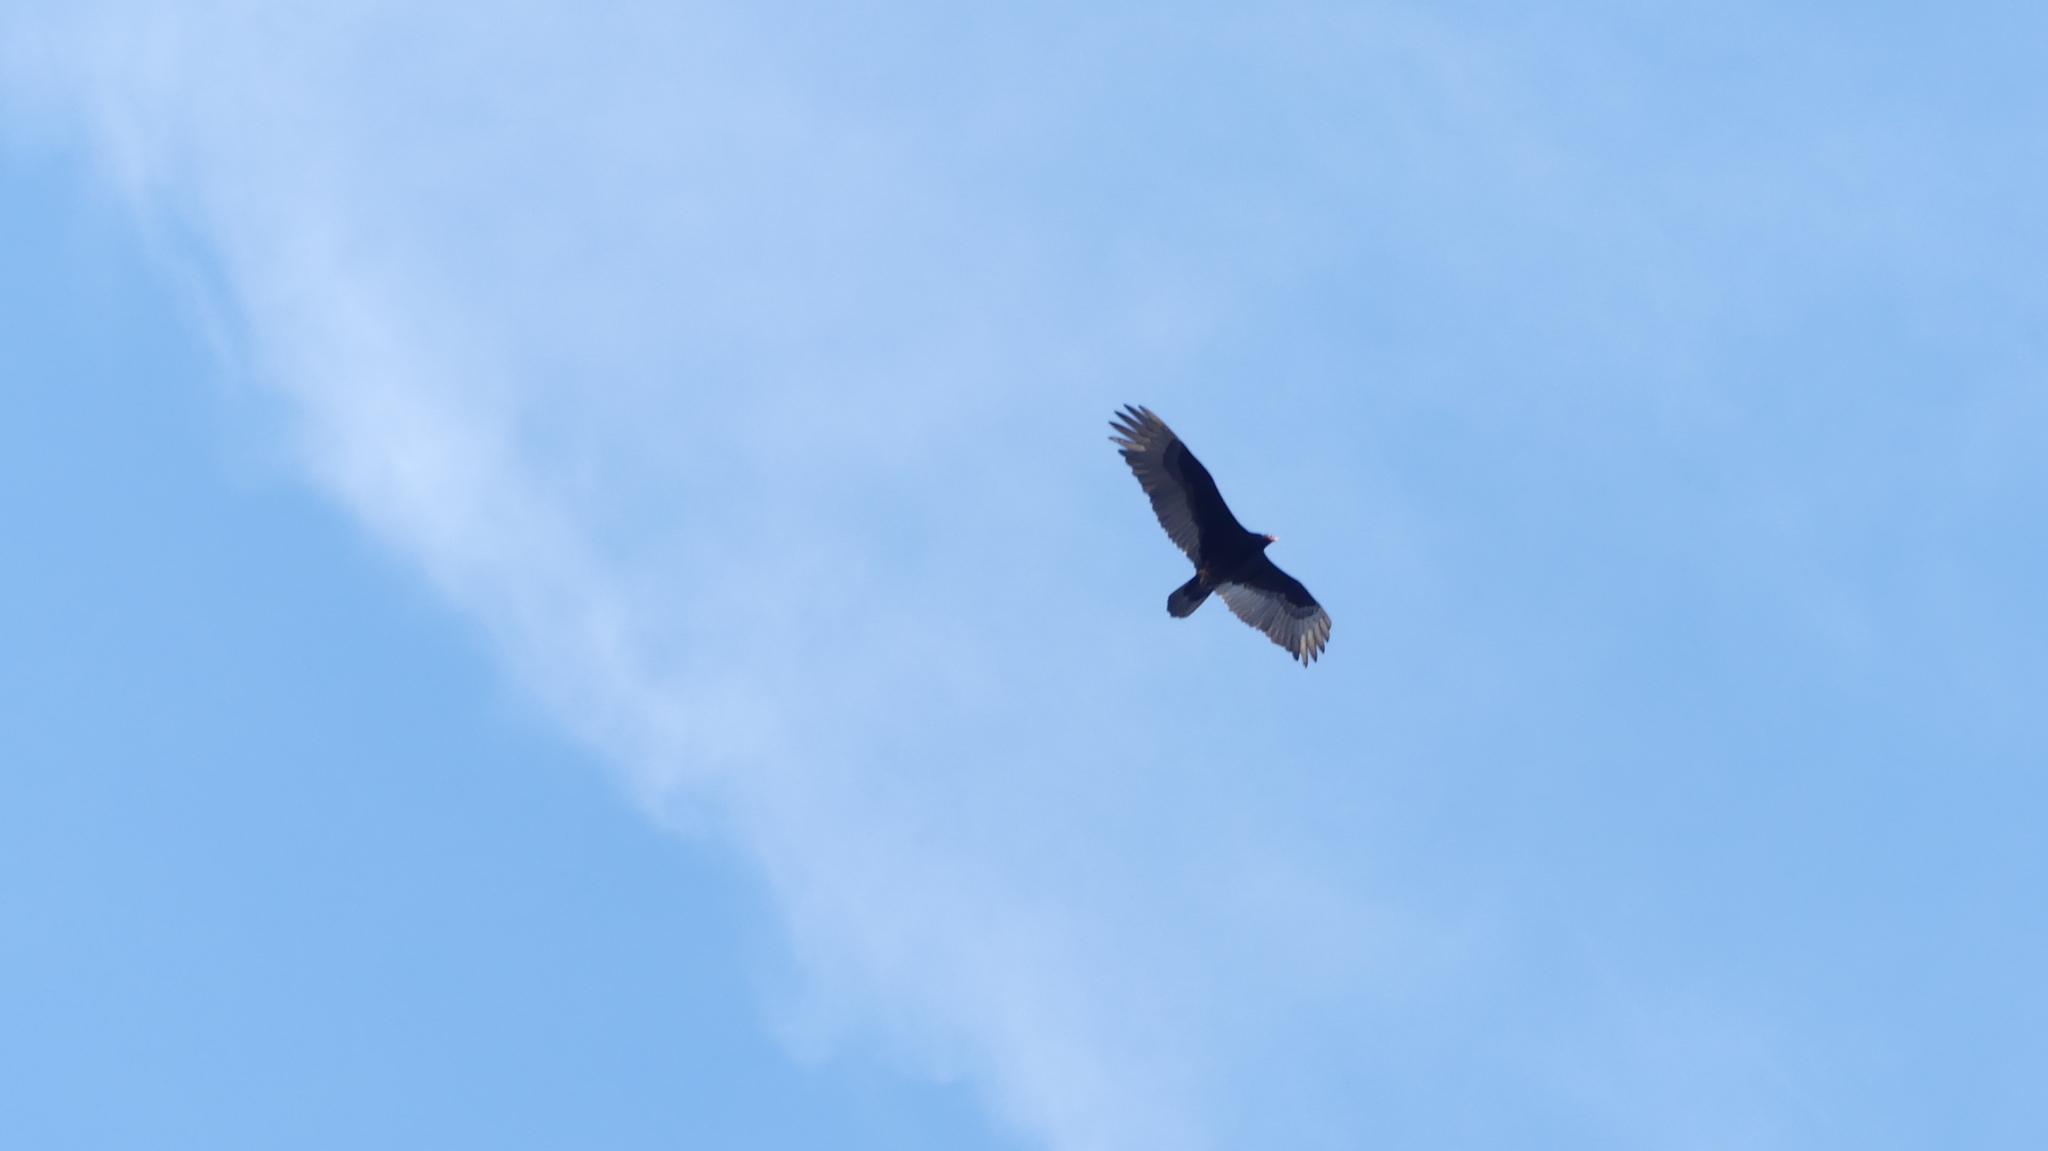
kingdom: Animalia
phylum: Chordata
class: Aves
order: Accipitriformes
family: Cathartidae
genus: Cathartes
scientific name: Cathartes aura
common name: Turkey vulture
